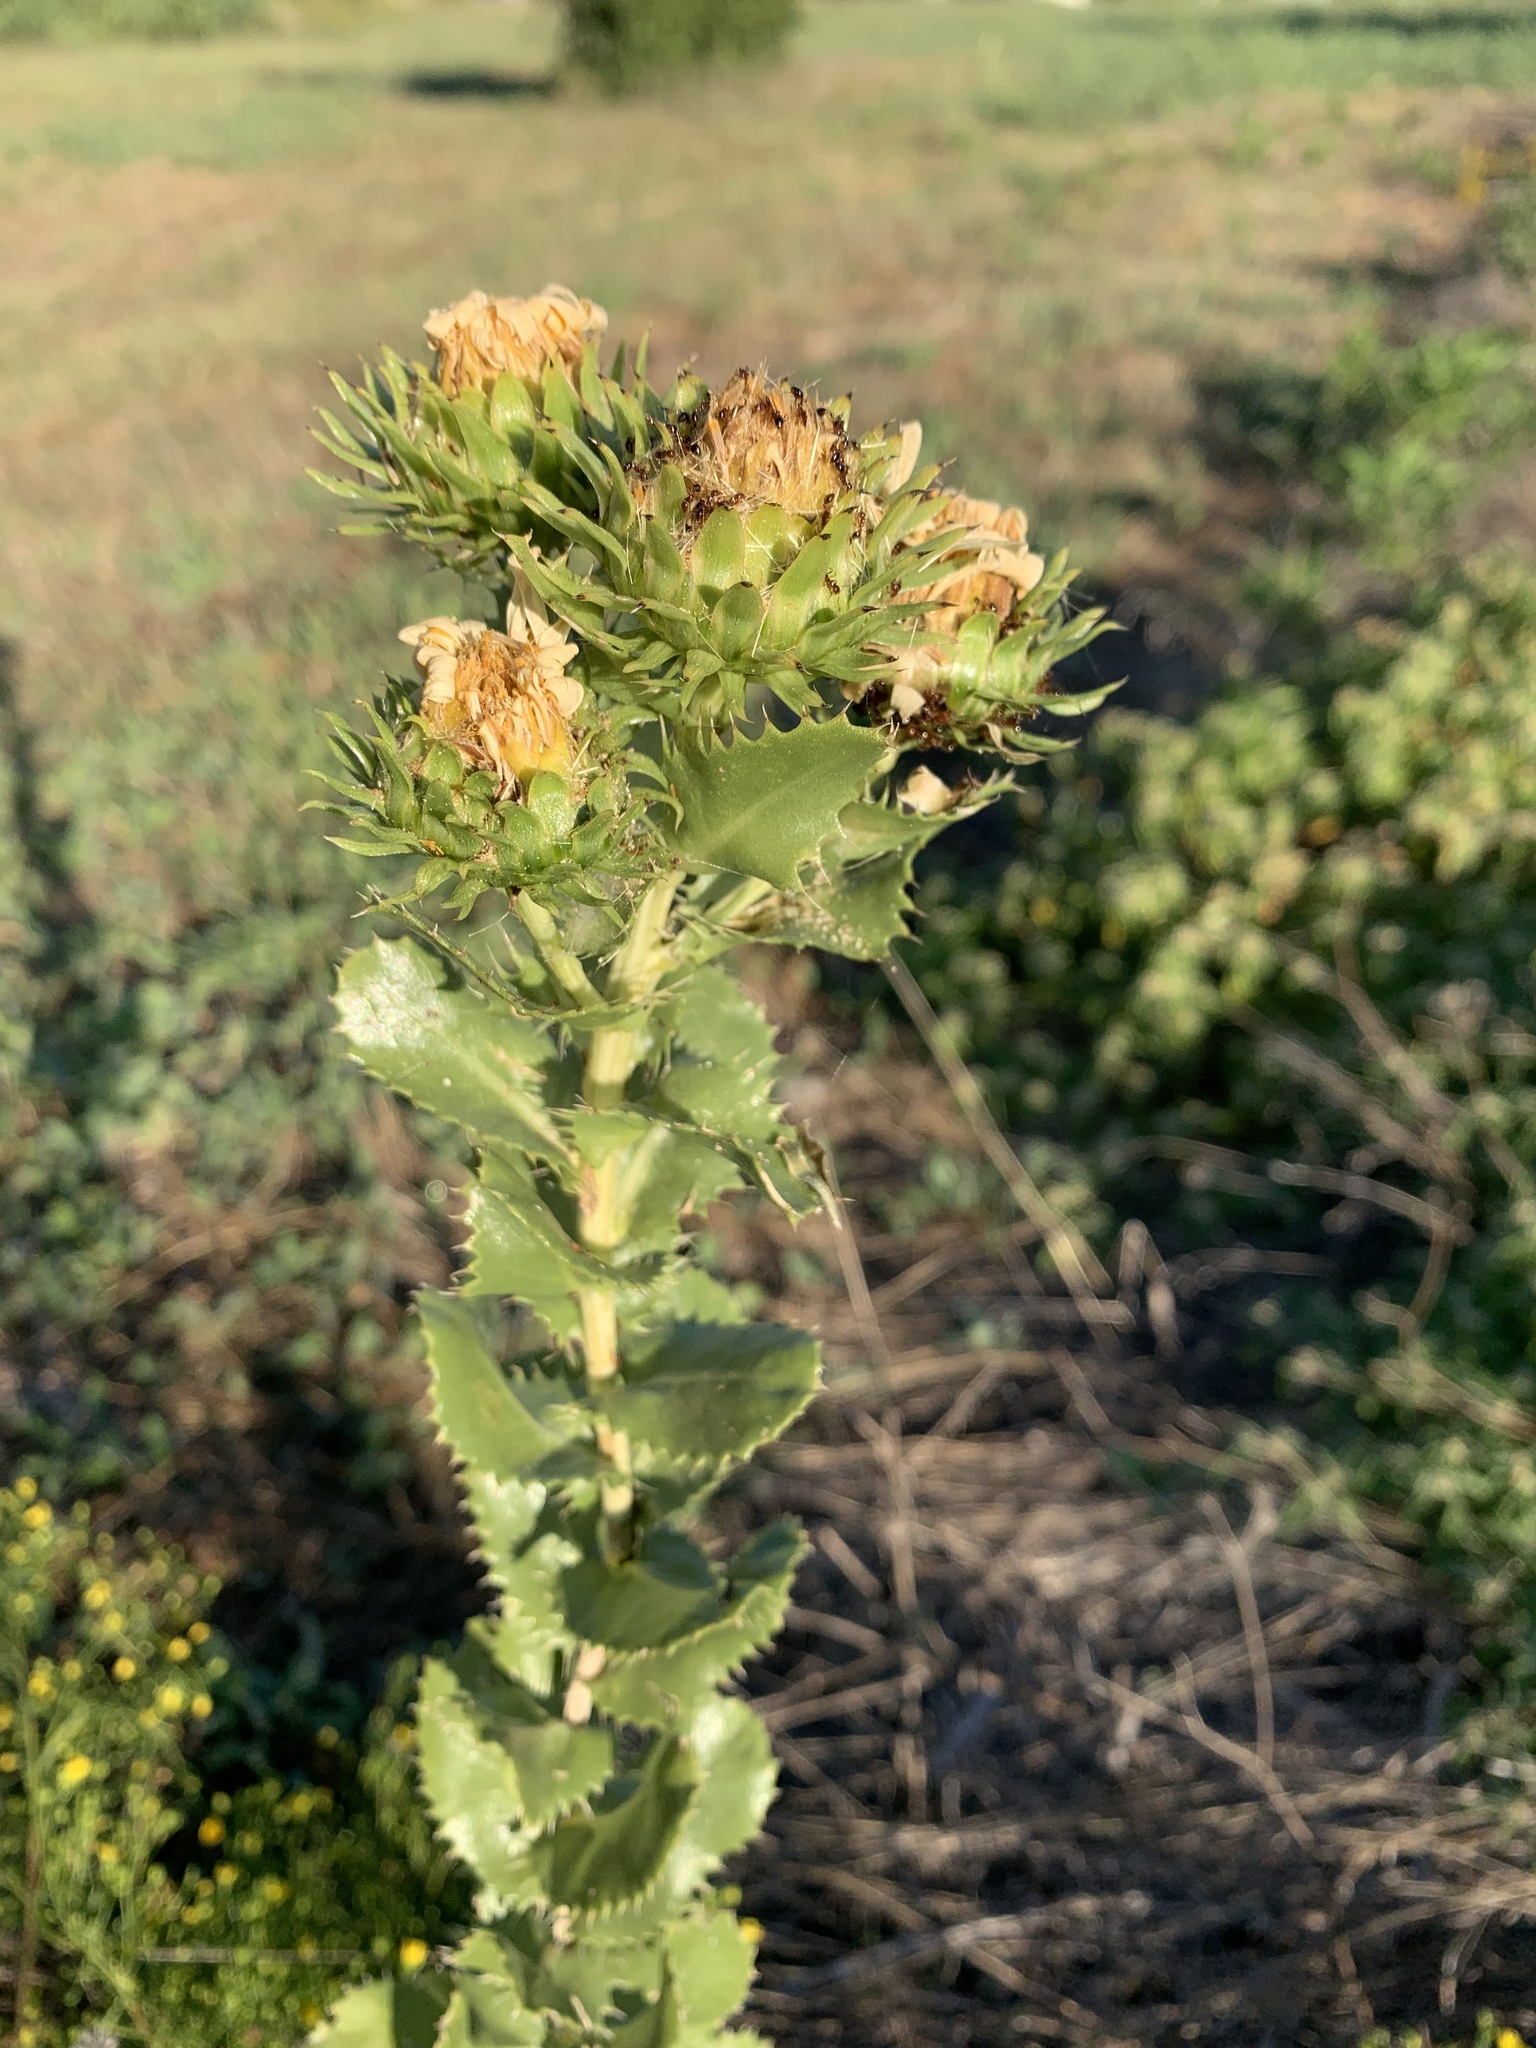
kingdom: Plantae
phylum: Tracheophyta
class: Magnoliopsida
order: Asterales
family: Asteraceae
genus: Grindelia
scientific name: Grindelia ciliata
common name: Goldenweed
